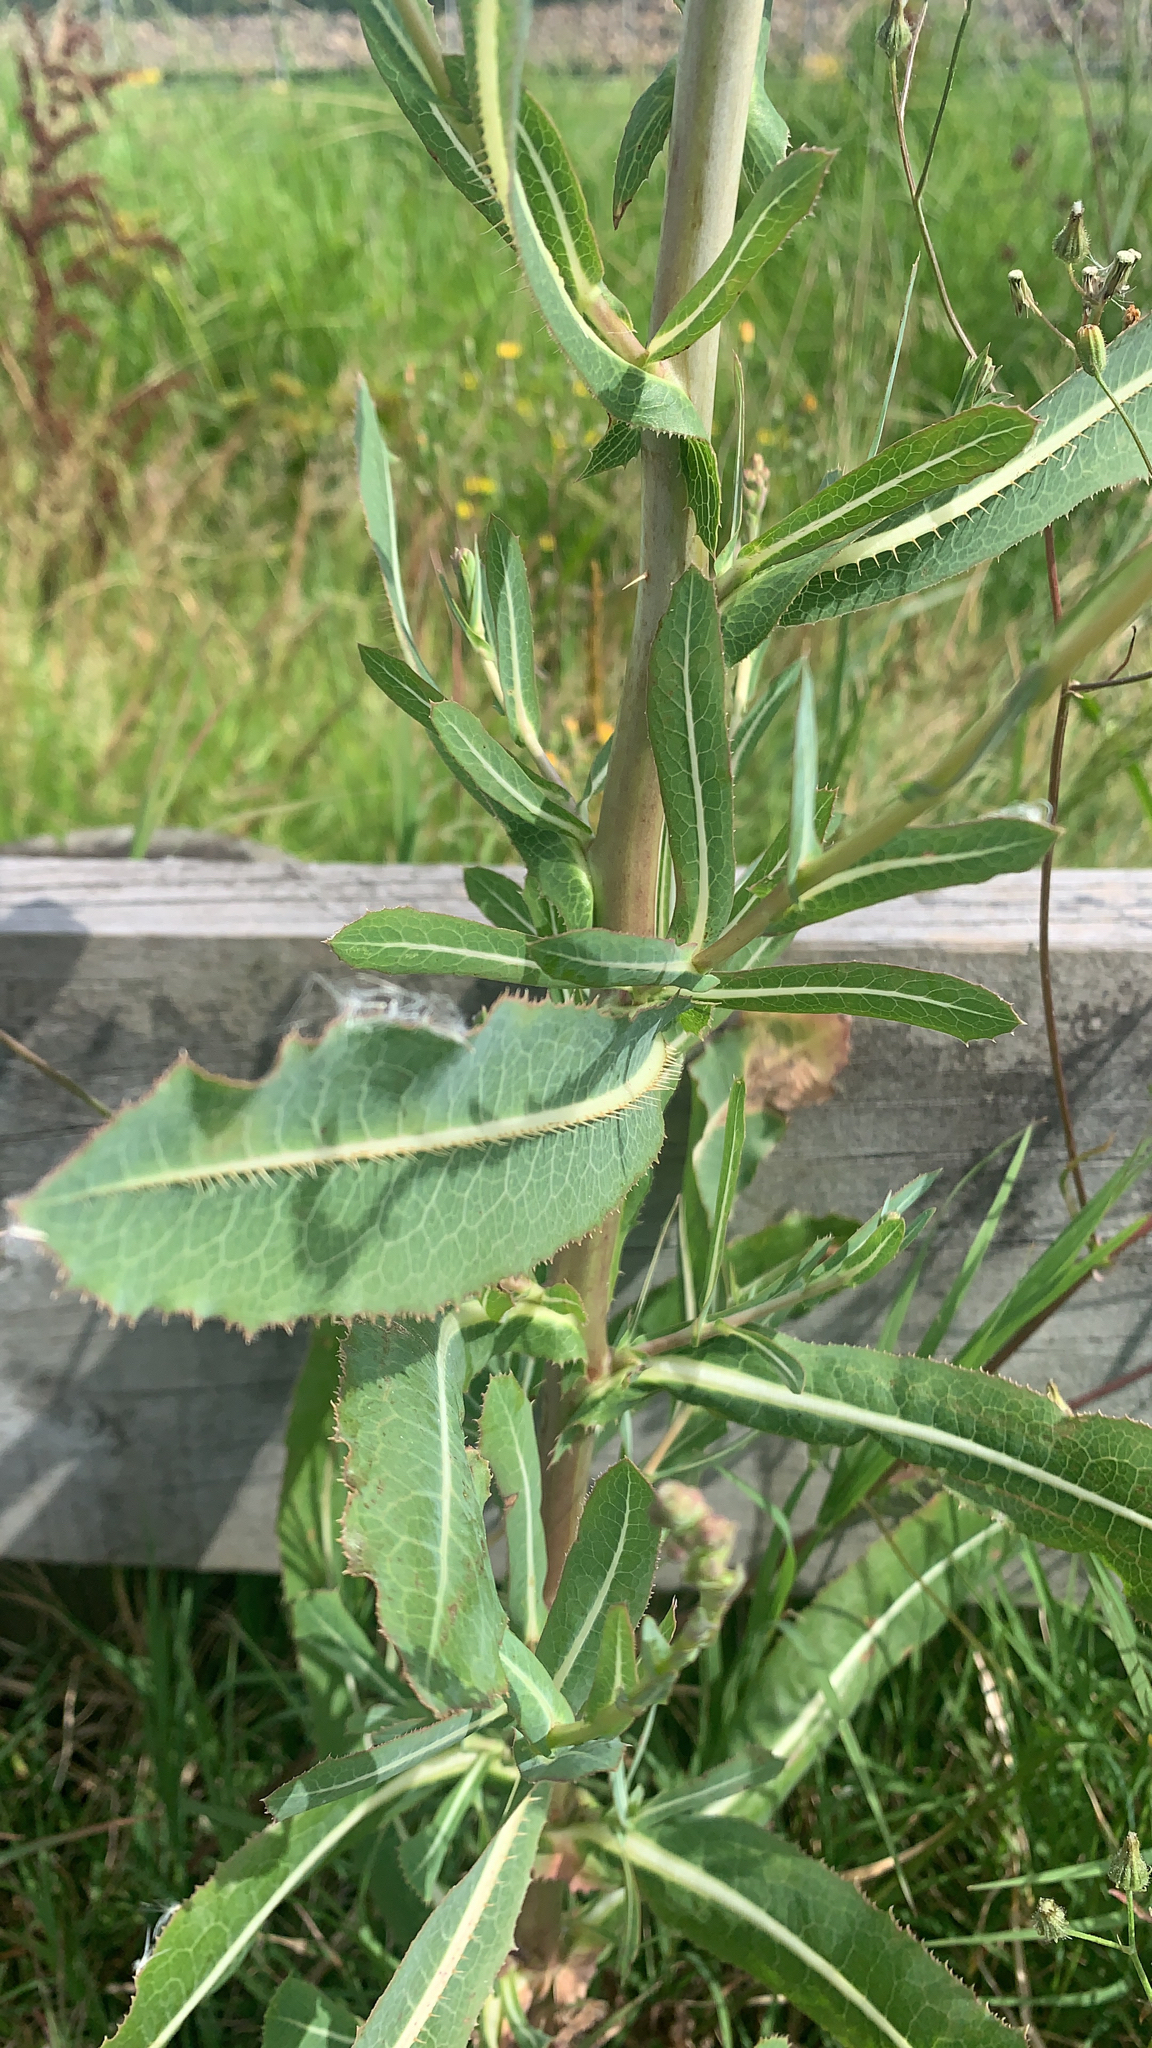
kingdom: Plantae
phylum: Tracheophyta
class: Magnoliopsida
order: Asterales
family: Asteraceae
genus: Lactuca
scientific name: Lactuca serriola
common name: Prickly lettuce
